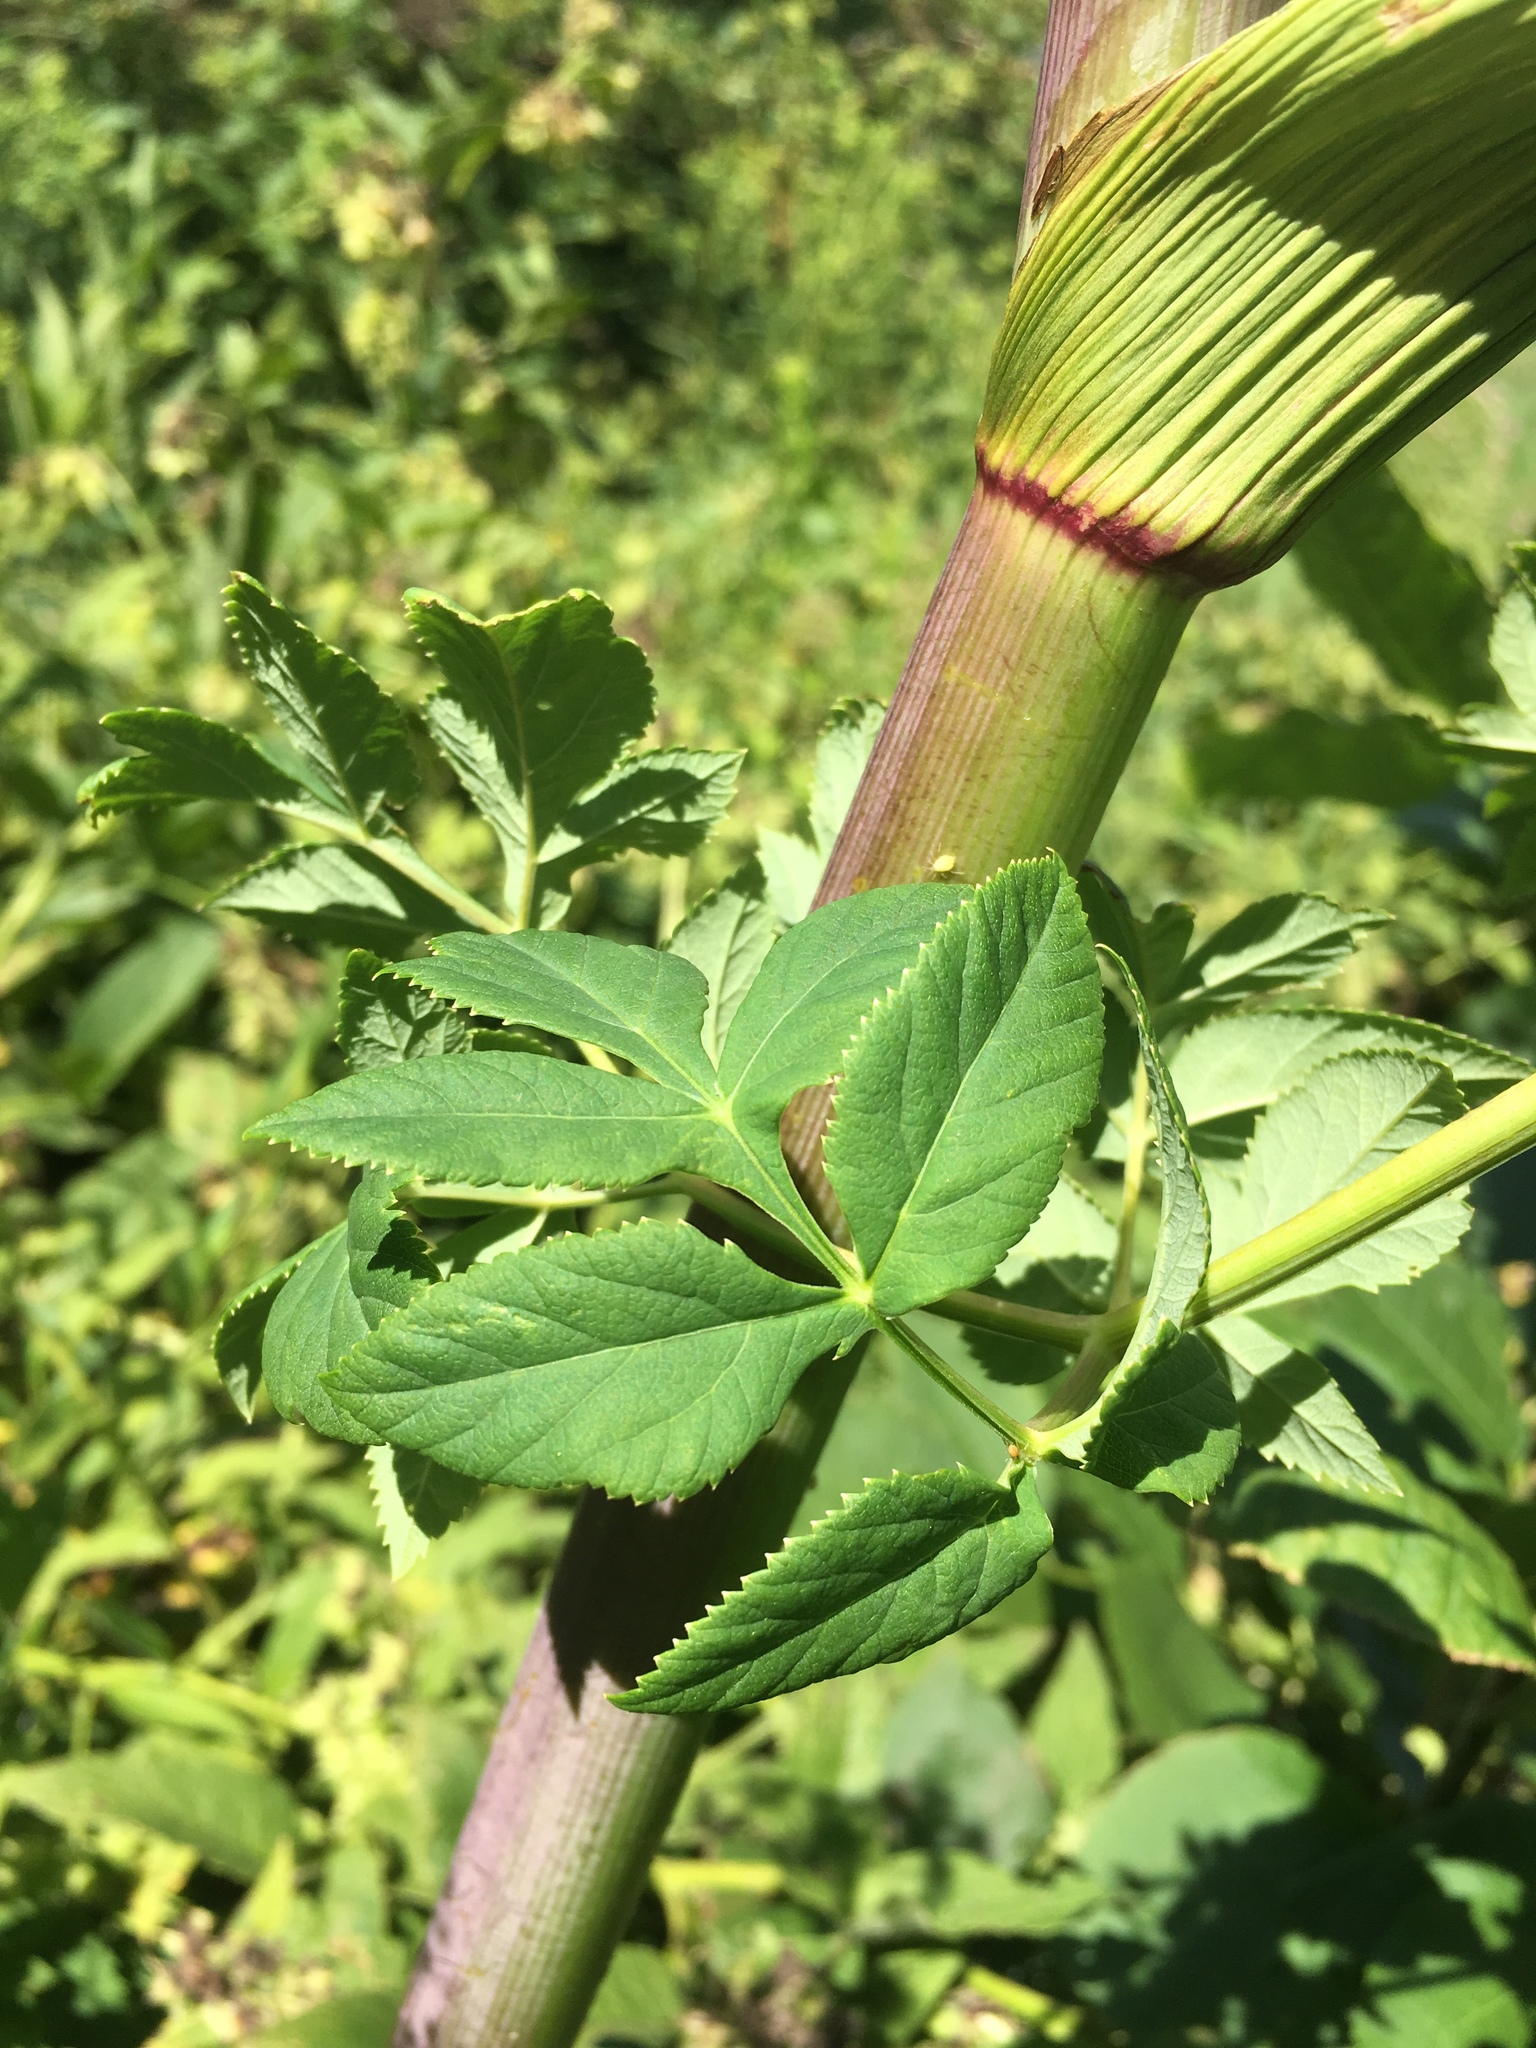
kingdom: Plantae
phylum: Tracheophyta
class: Magnoliopsida
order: Apiales
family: Apiaceae
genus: Angelica
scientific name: Angelica atropurpurea
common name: Great angelica
